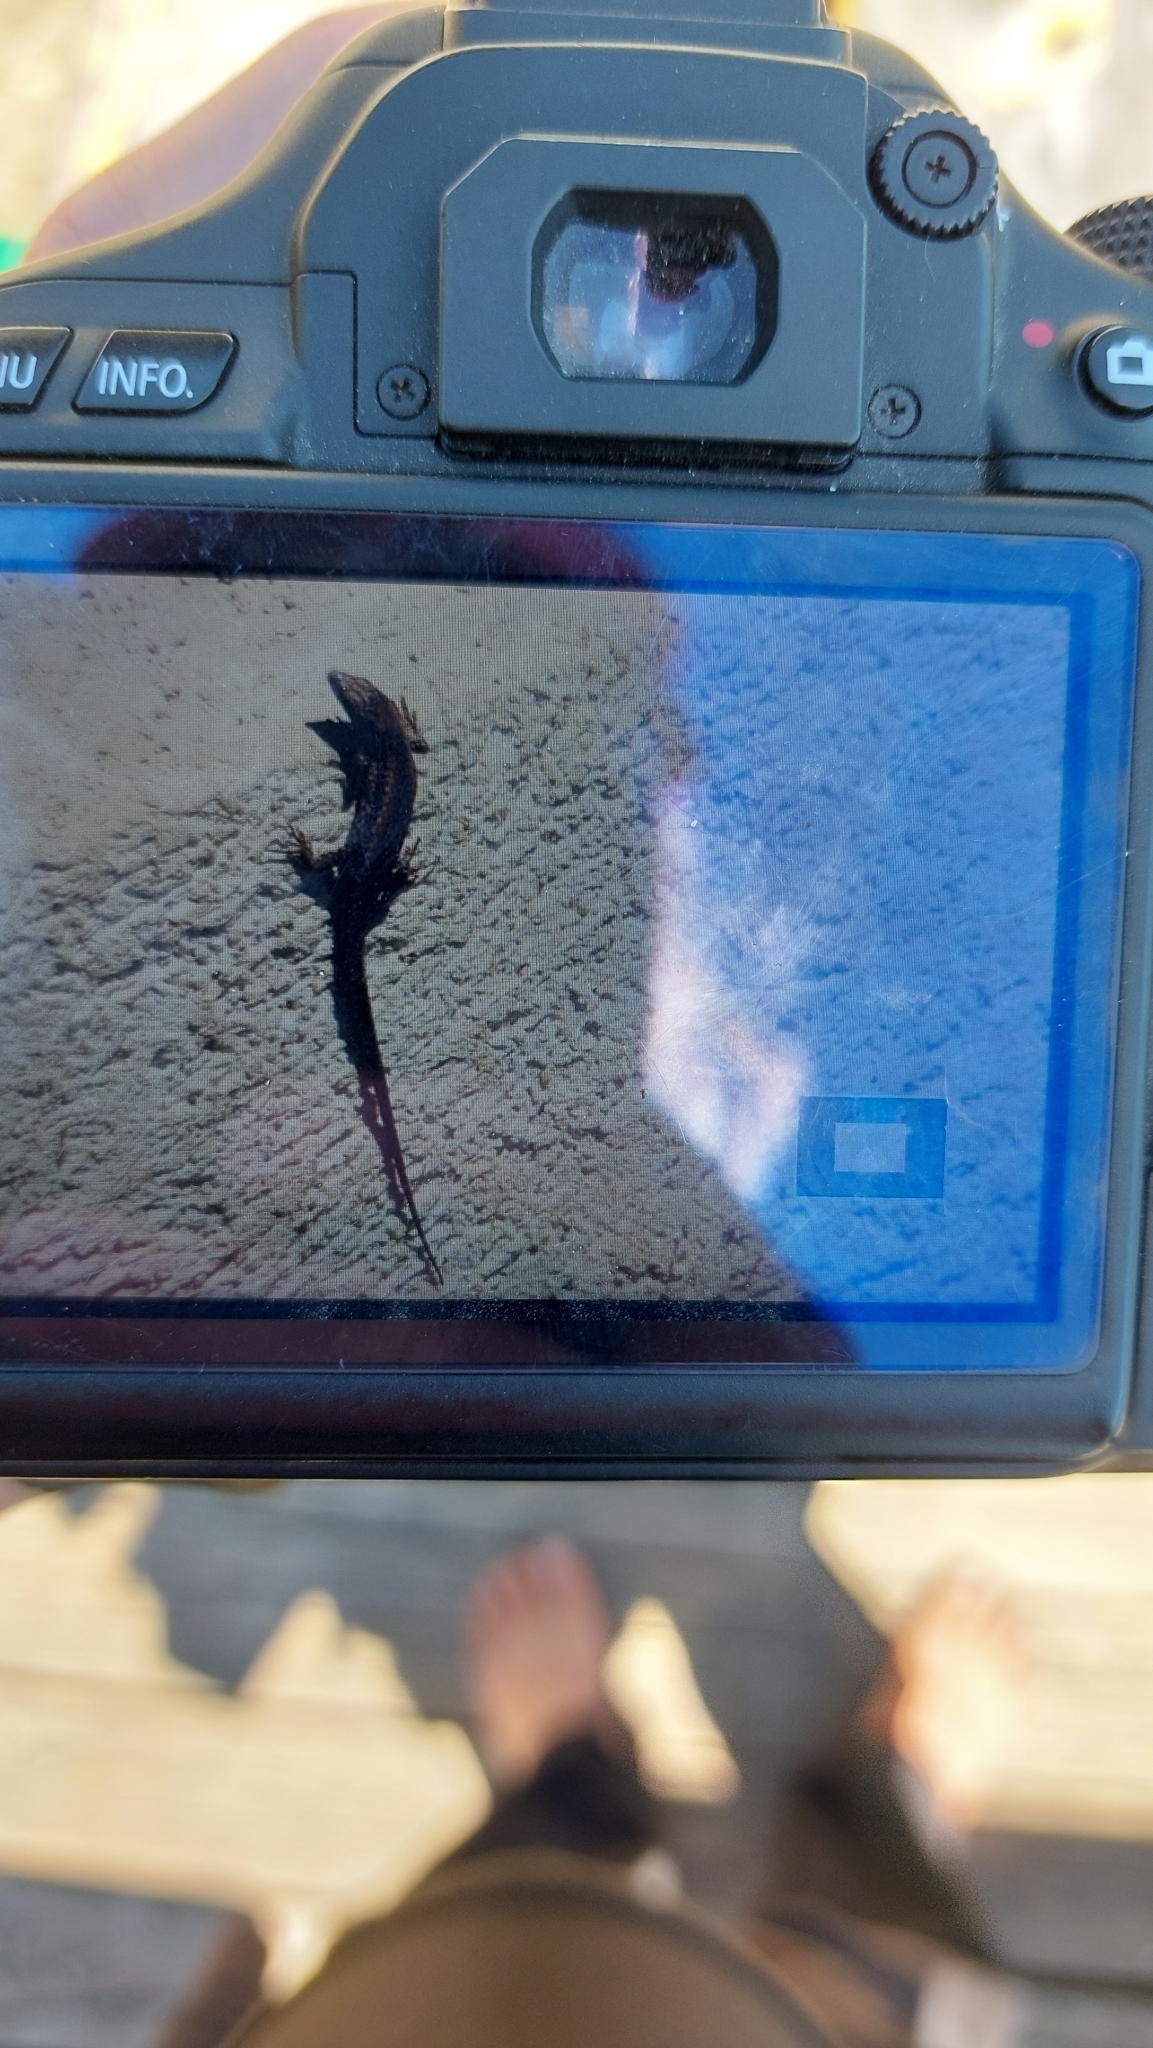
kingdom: Animalia
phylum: Chordata
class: Squamata
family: Lacertidae
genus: Podarcis
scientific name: Podarcis muralis
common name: Common wall lizard
